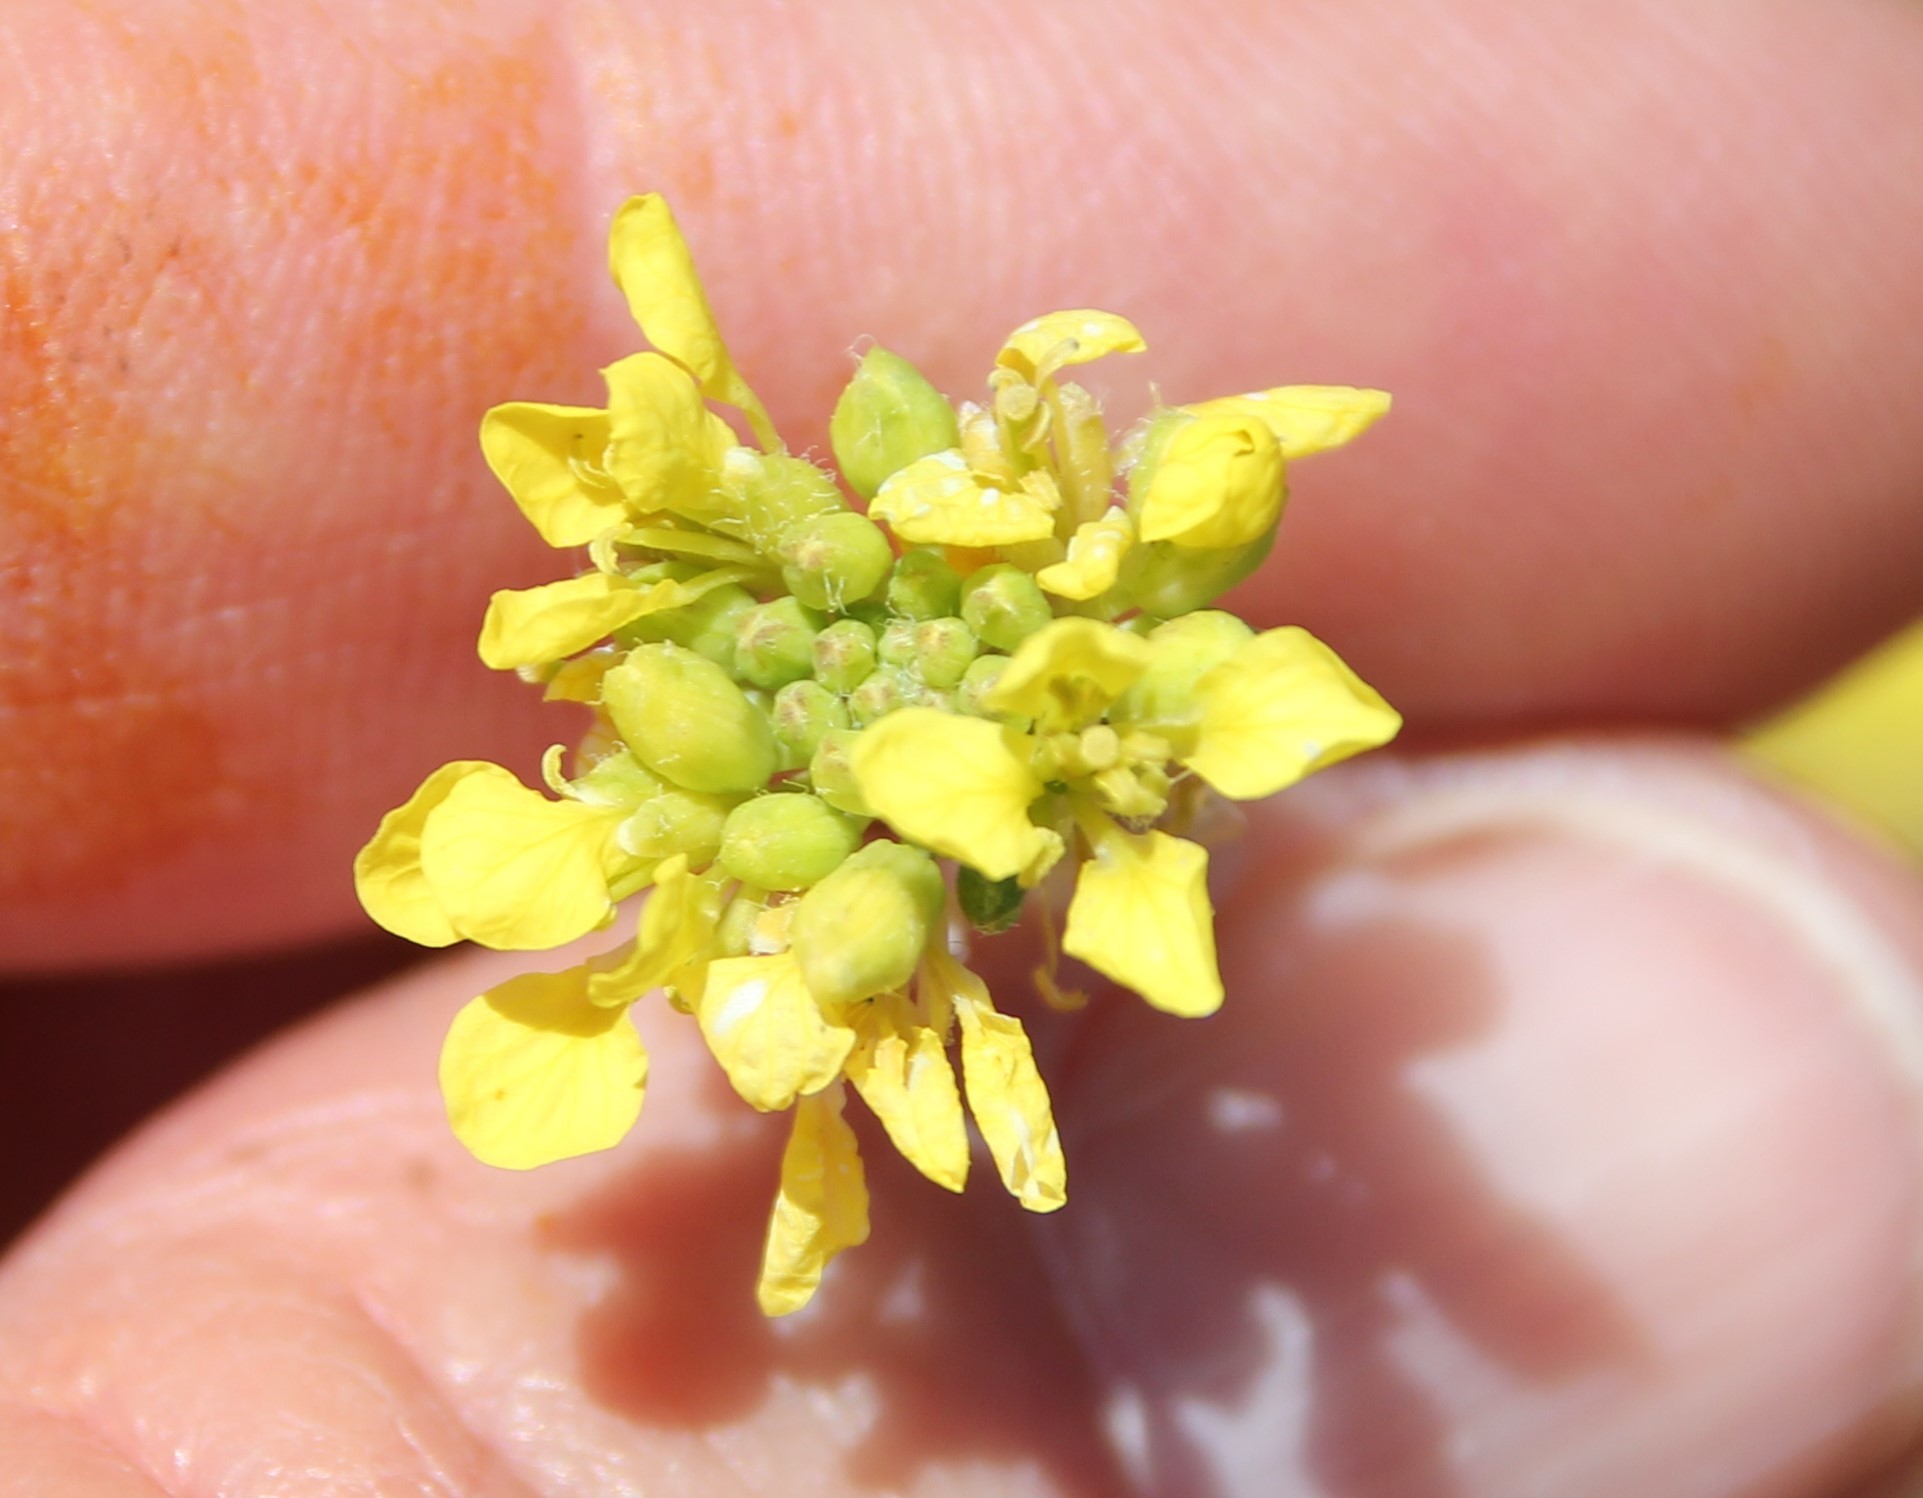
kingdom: Plantae
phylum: Tracheophyta
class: Magnoliopsida
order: Brassicales
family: Brassicaceae
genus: Hirschfeldia
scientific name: Hirschfeldia incana
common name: Hoary mustard
